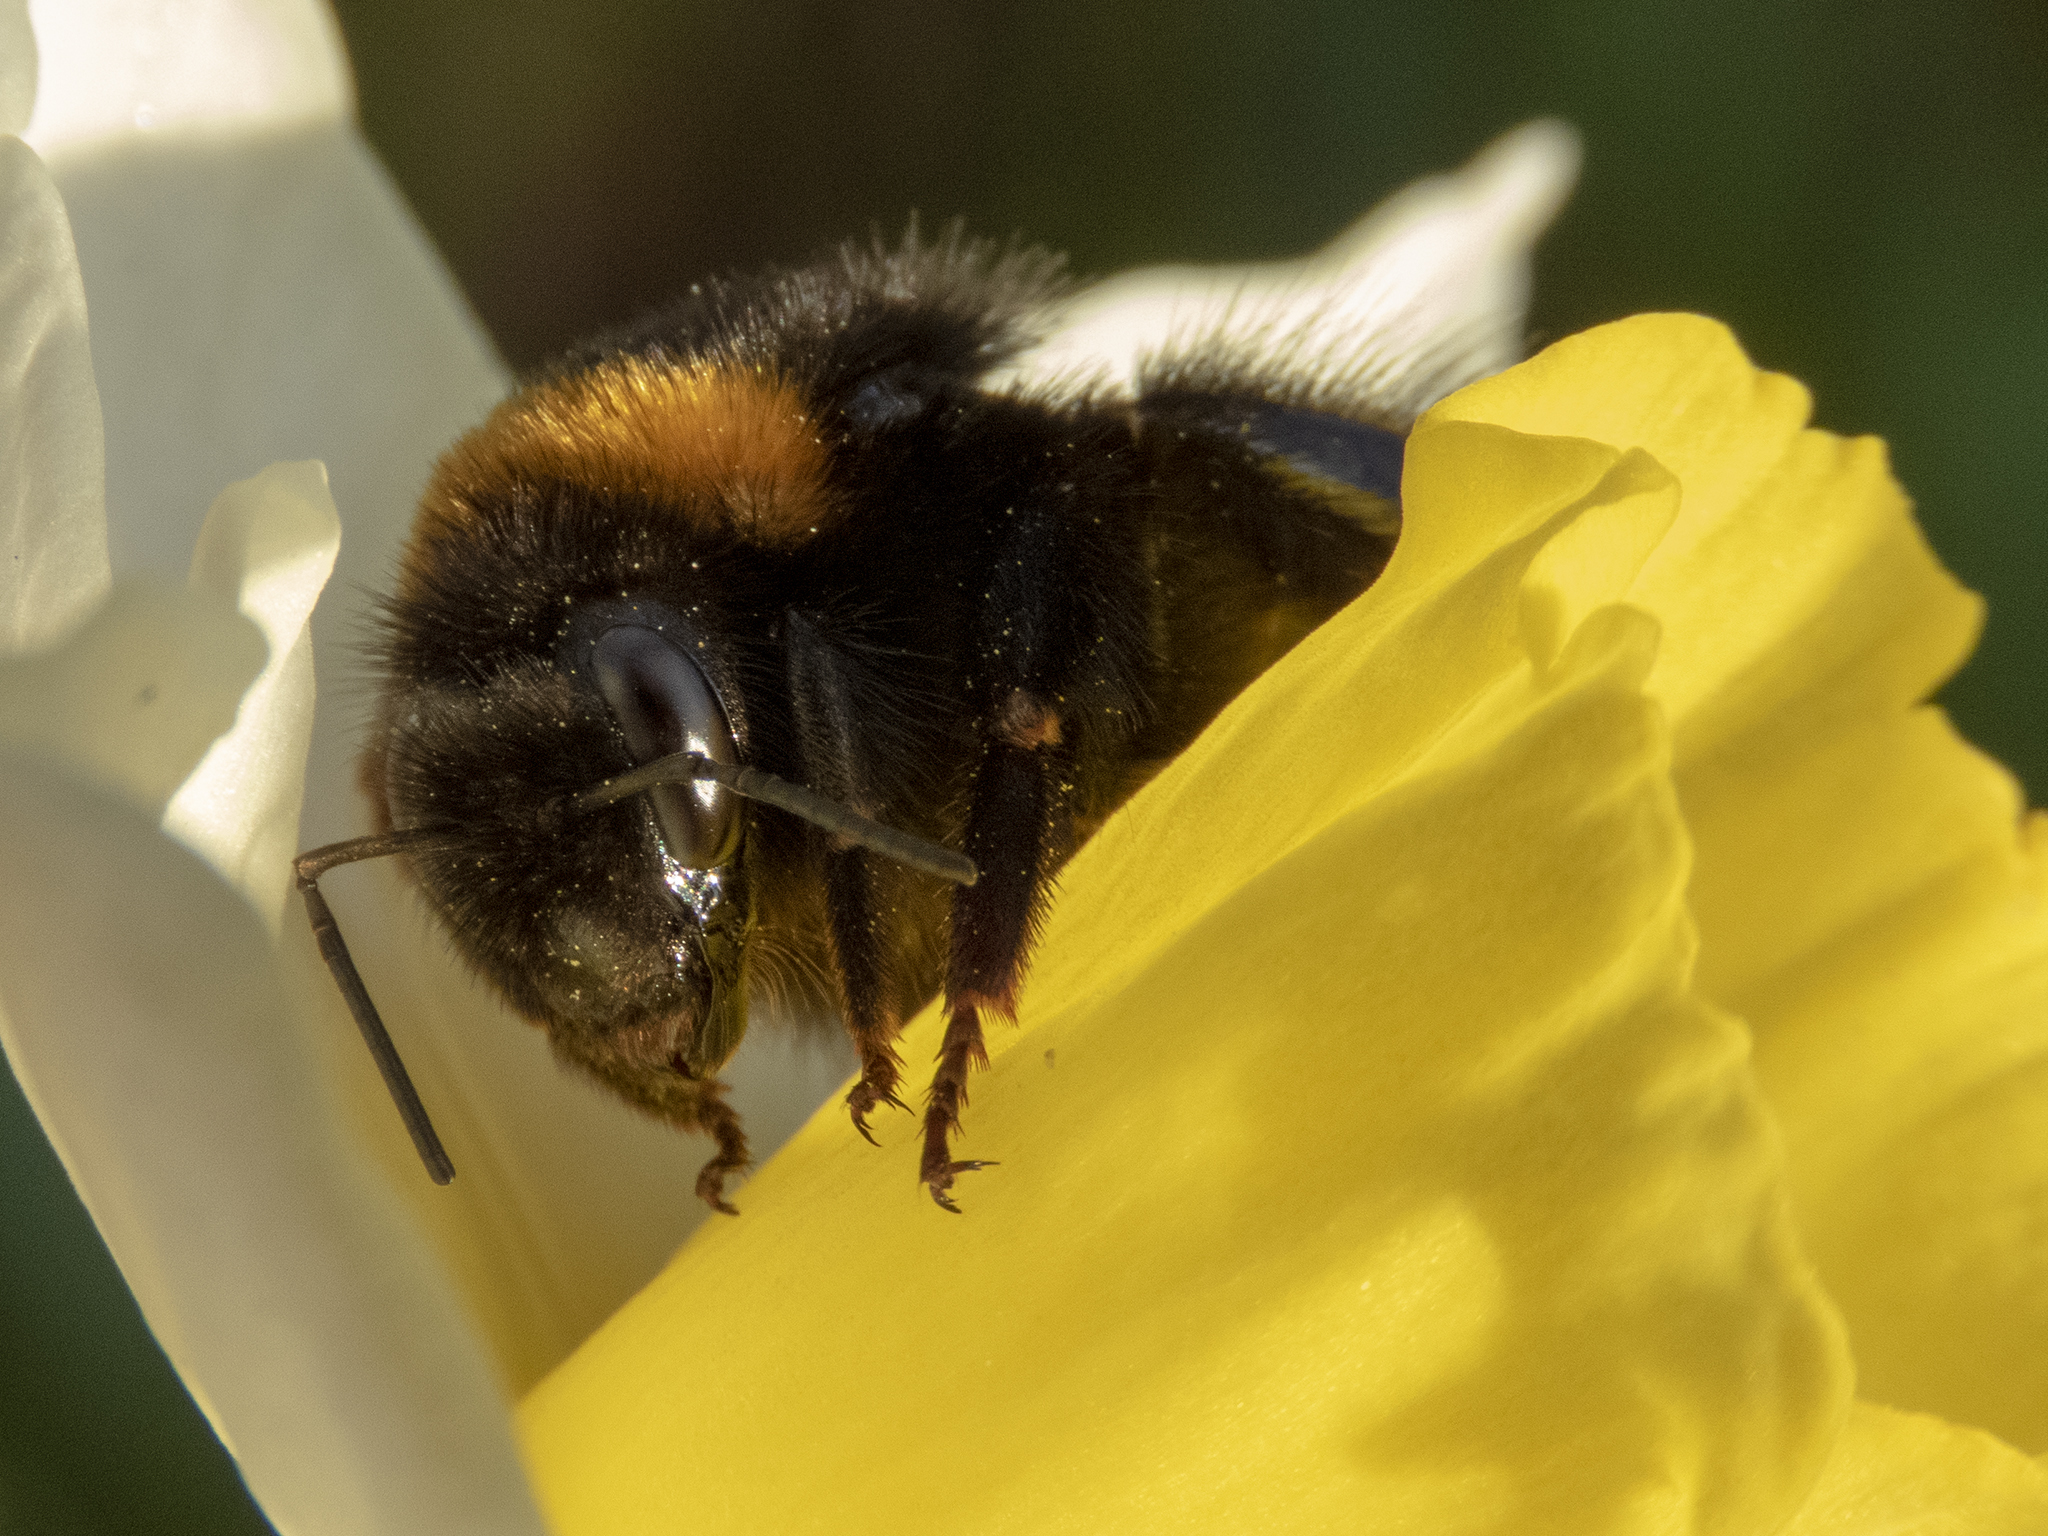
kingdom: Animalia
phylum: Arthropoda
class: Insecta
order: Hymenoptera
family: Apidae
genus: Bombus
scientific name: Bombus terrestris
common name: Buff-tailed bumblebee
